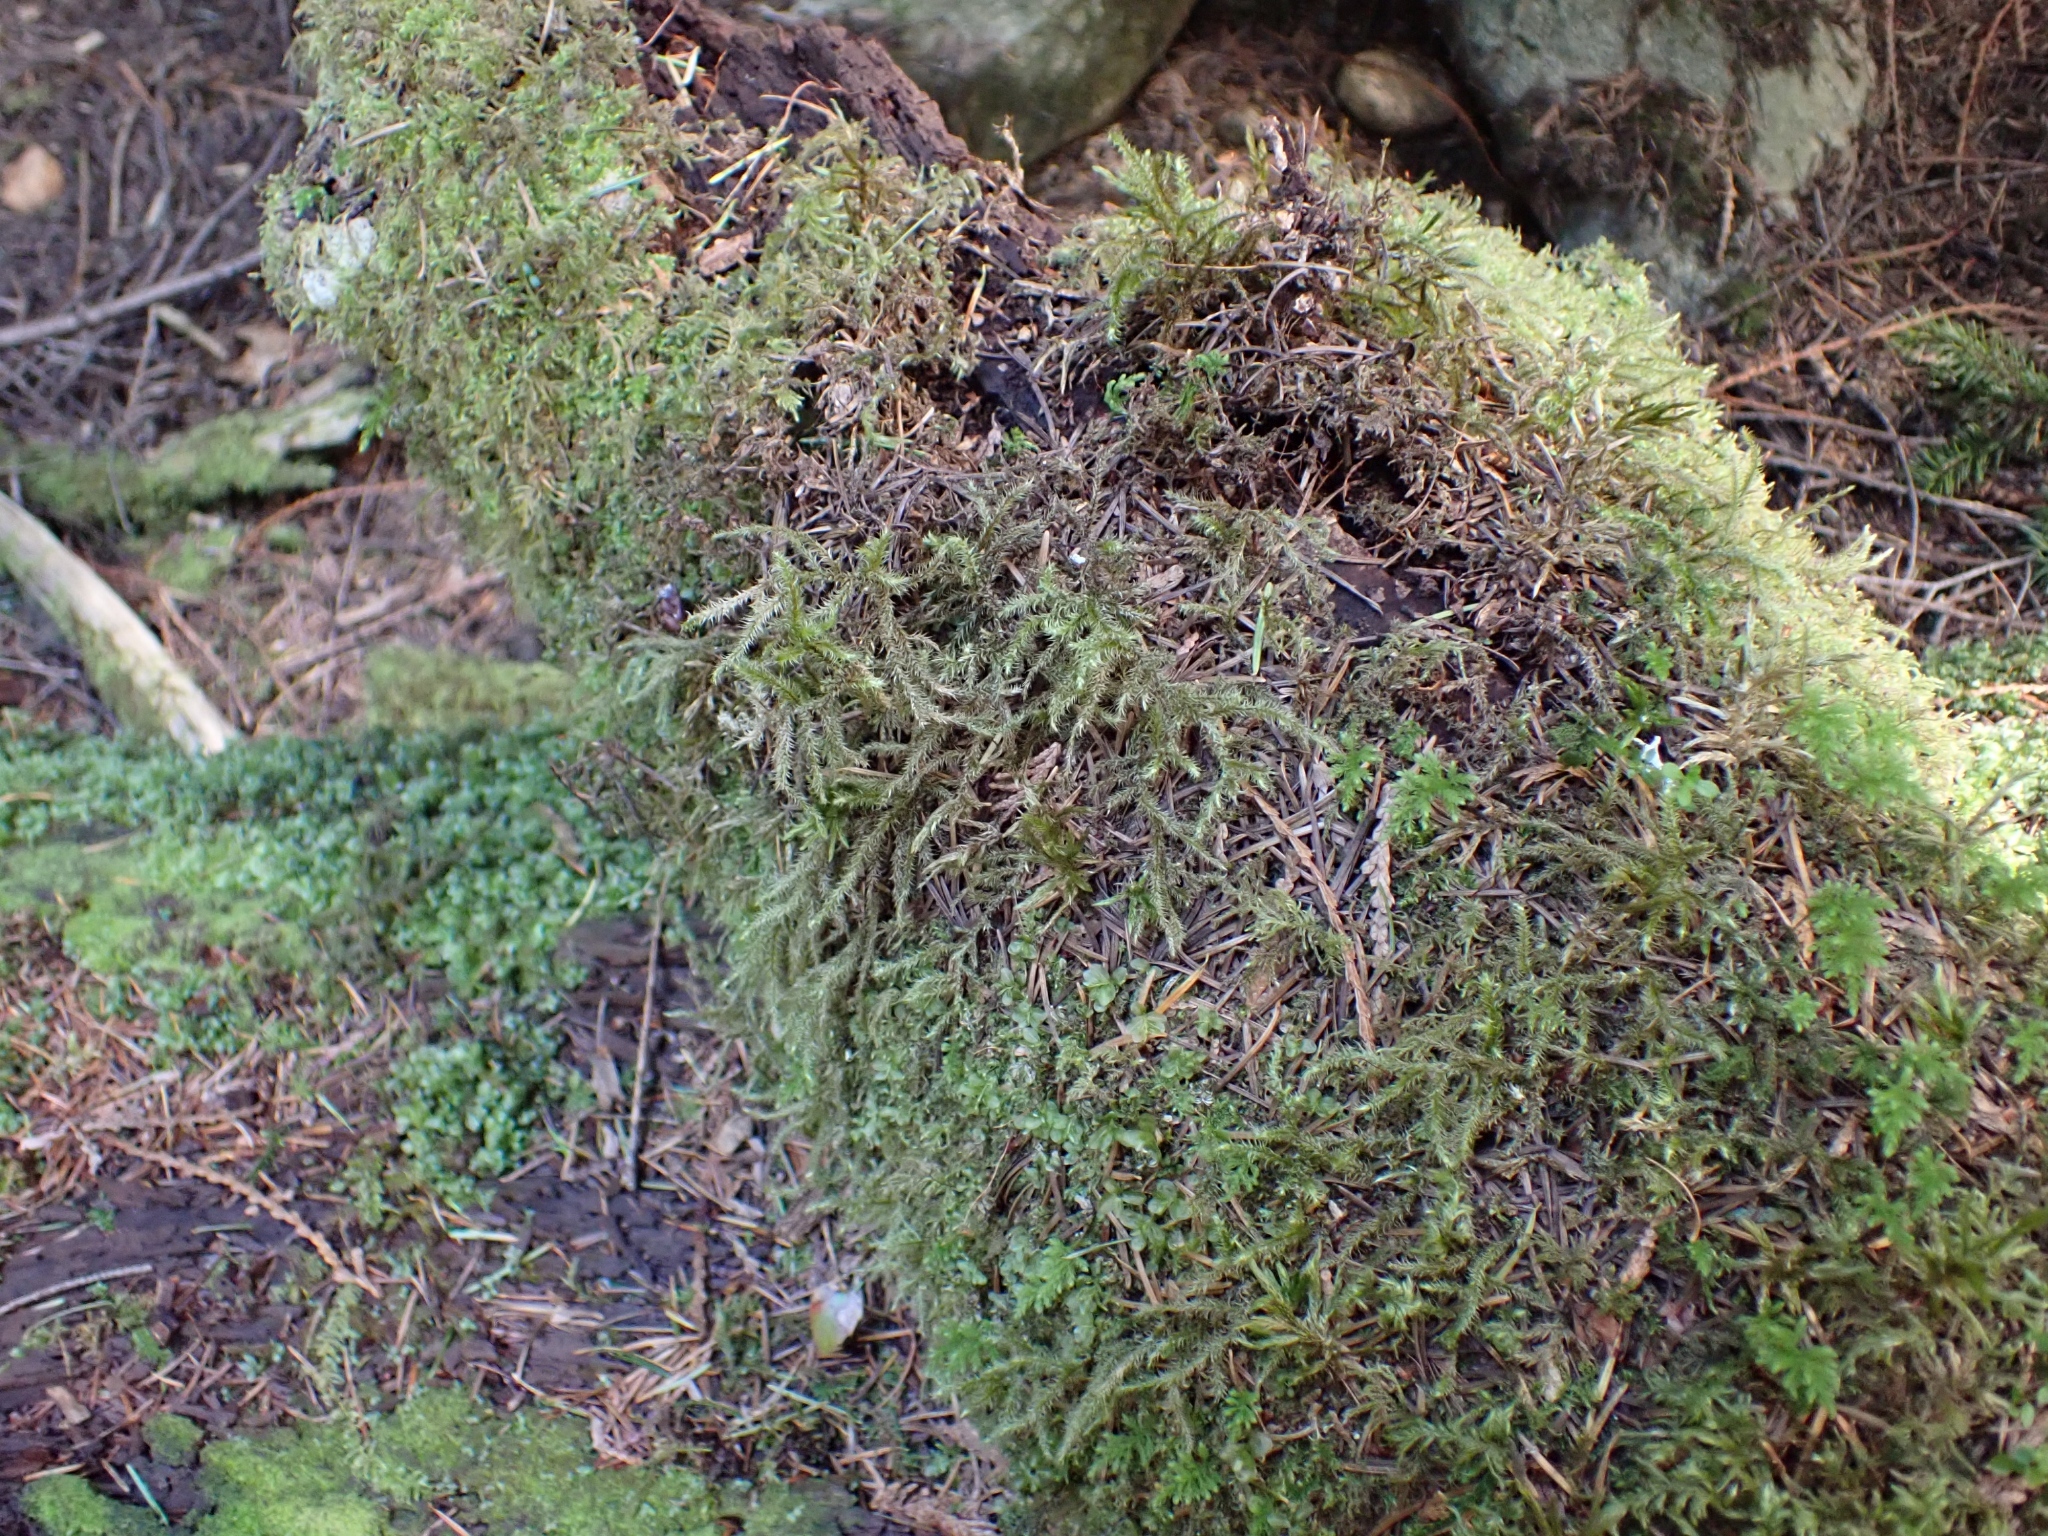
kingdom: Plantae
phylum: Bryophyta
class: Bryopsida
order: Hypnales
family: Hylocomiaceae
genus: Rhytidiadelphus
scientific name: Rhytidiadelphus loreus
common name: Lanky moss
